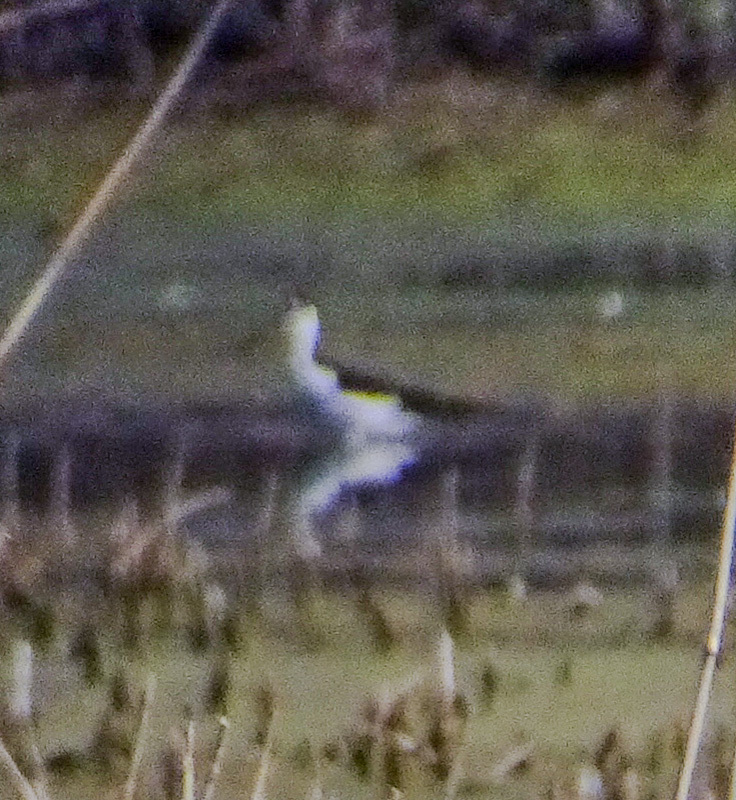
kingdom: Animalia
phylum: Chordata
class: Aves
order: Charadriiformes
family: Recurvirostridae
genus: Himantopus
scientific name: Himantopus mexicanus
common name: Black-necked stilt
